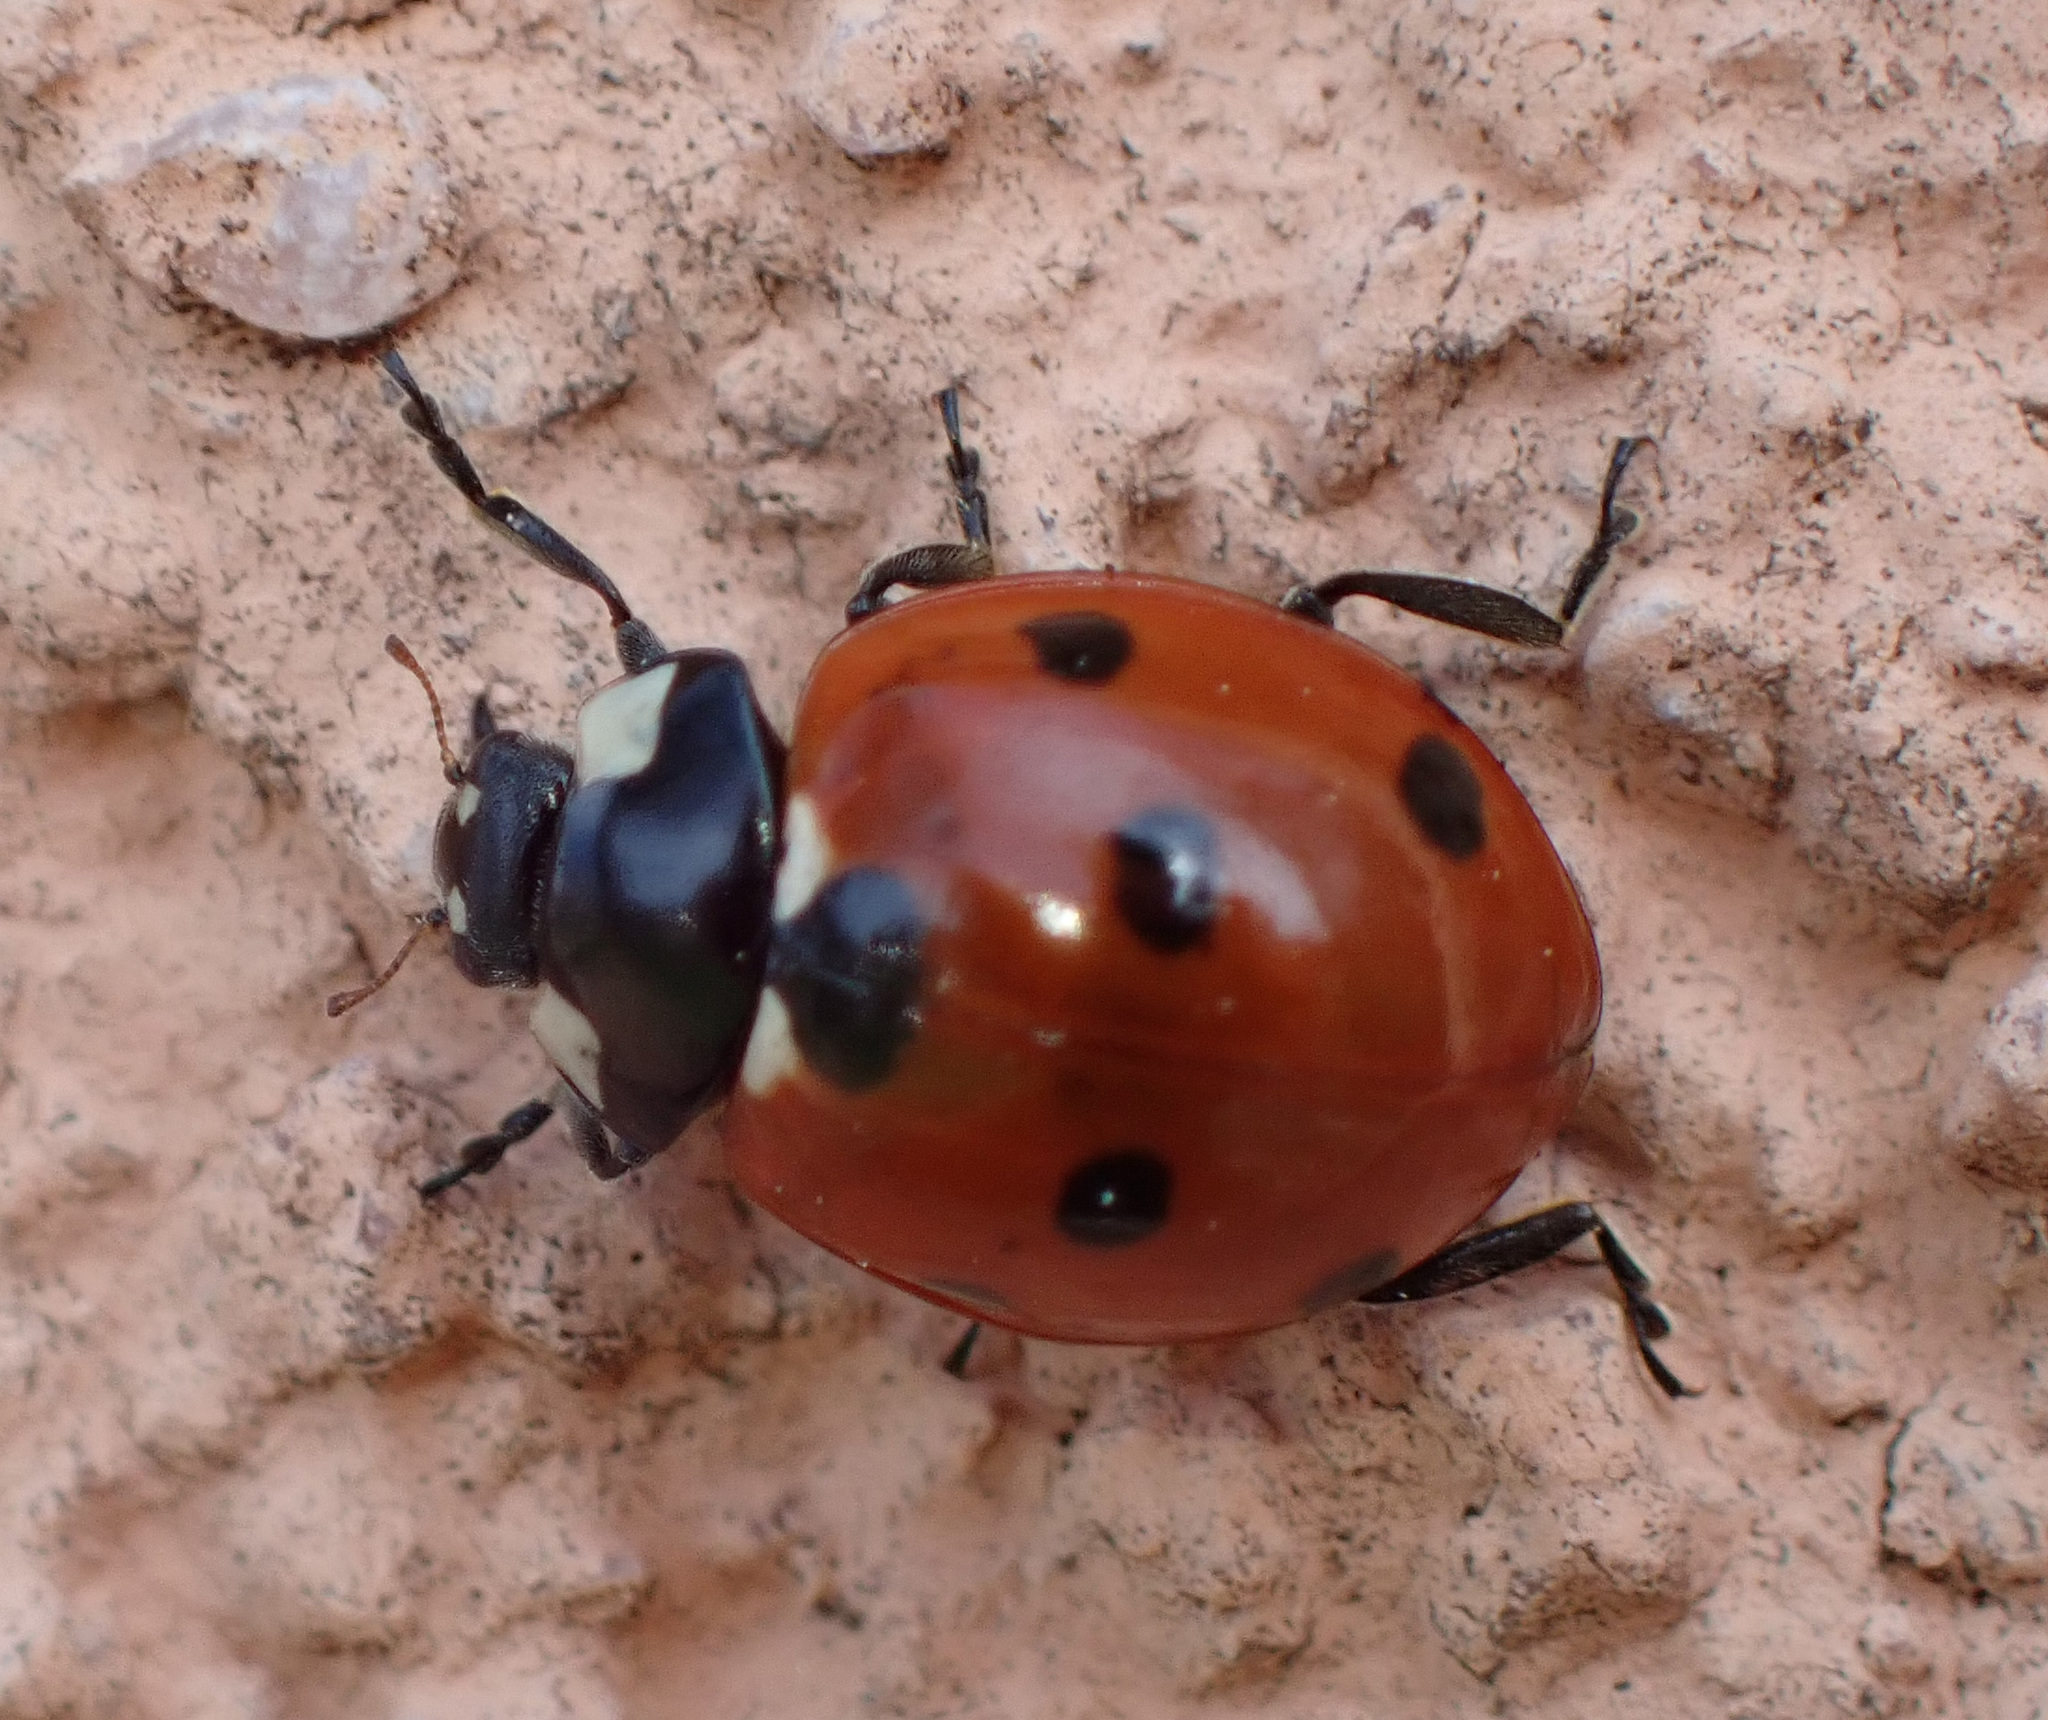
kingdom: Animalia
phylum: Arthropoda
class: Insecta
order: Coleoptera
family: Coccinellidae
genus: Coccinella
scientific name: Coccinella septempunctata
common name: Sevenspotted lady beetle
